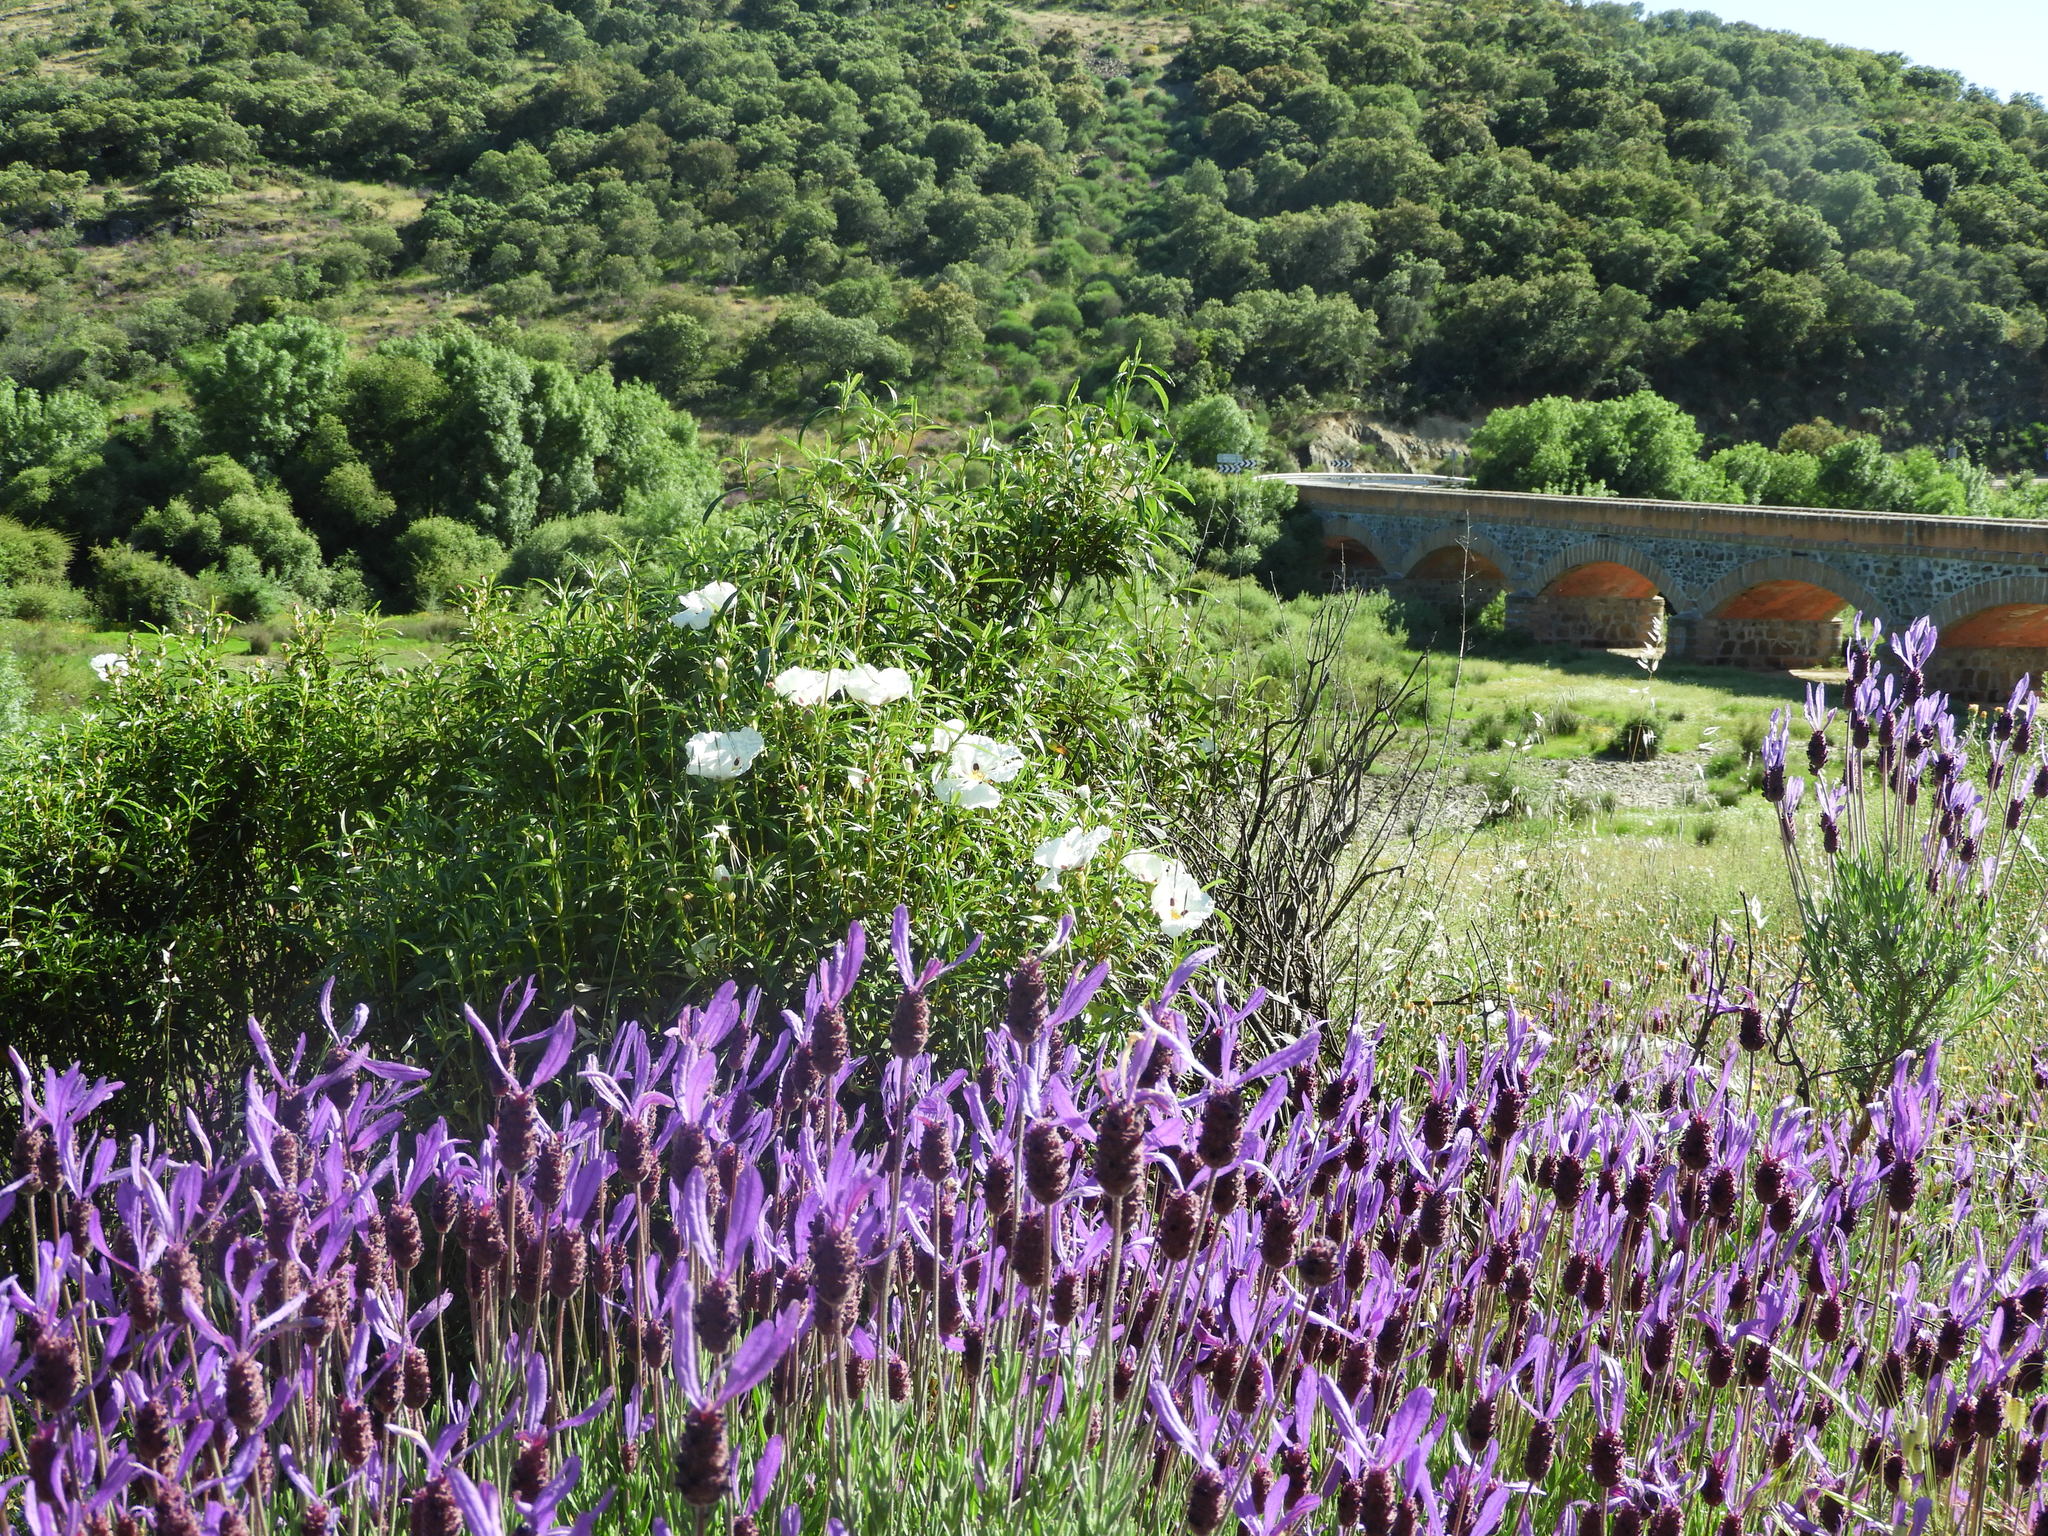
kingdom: Plantae
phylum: Tracheophyta
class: Magnoliopsida
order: Malvales
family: Cistaceae
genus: Cistus
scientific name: Cistus ladanifer
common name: Common gum cistus
